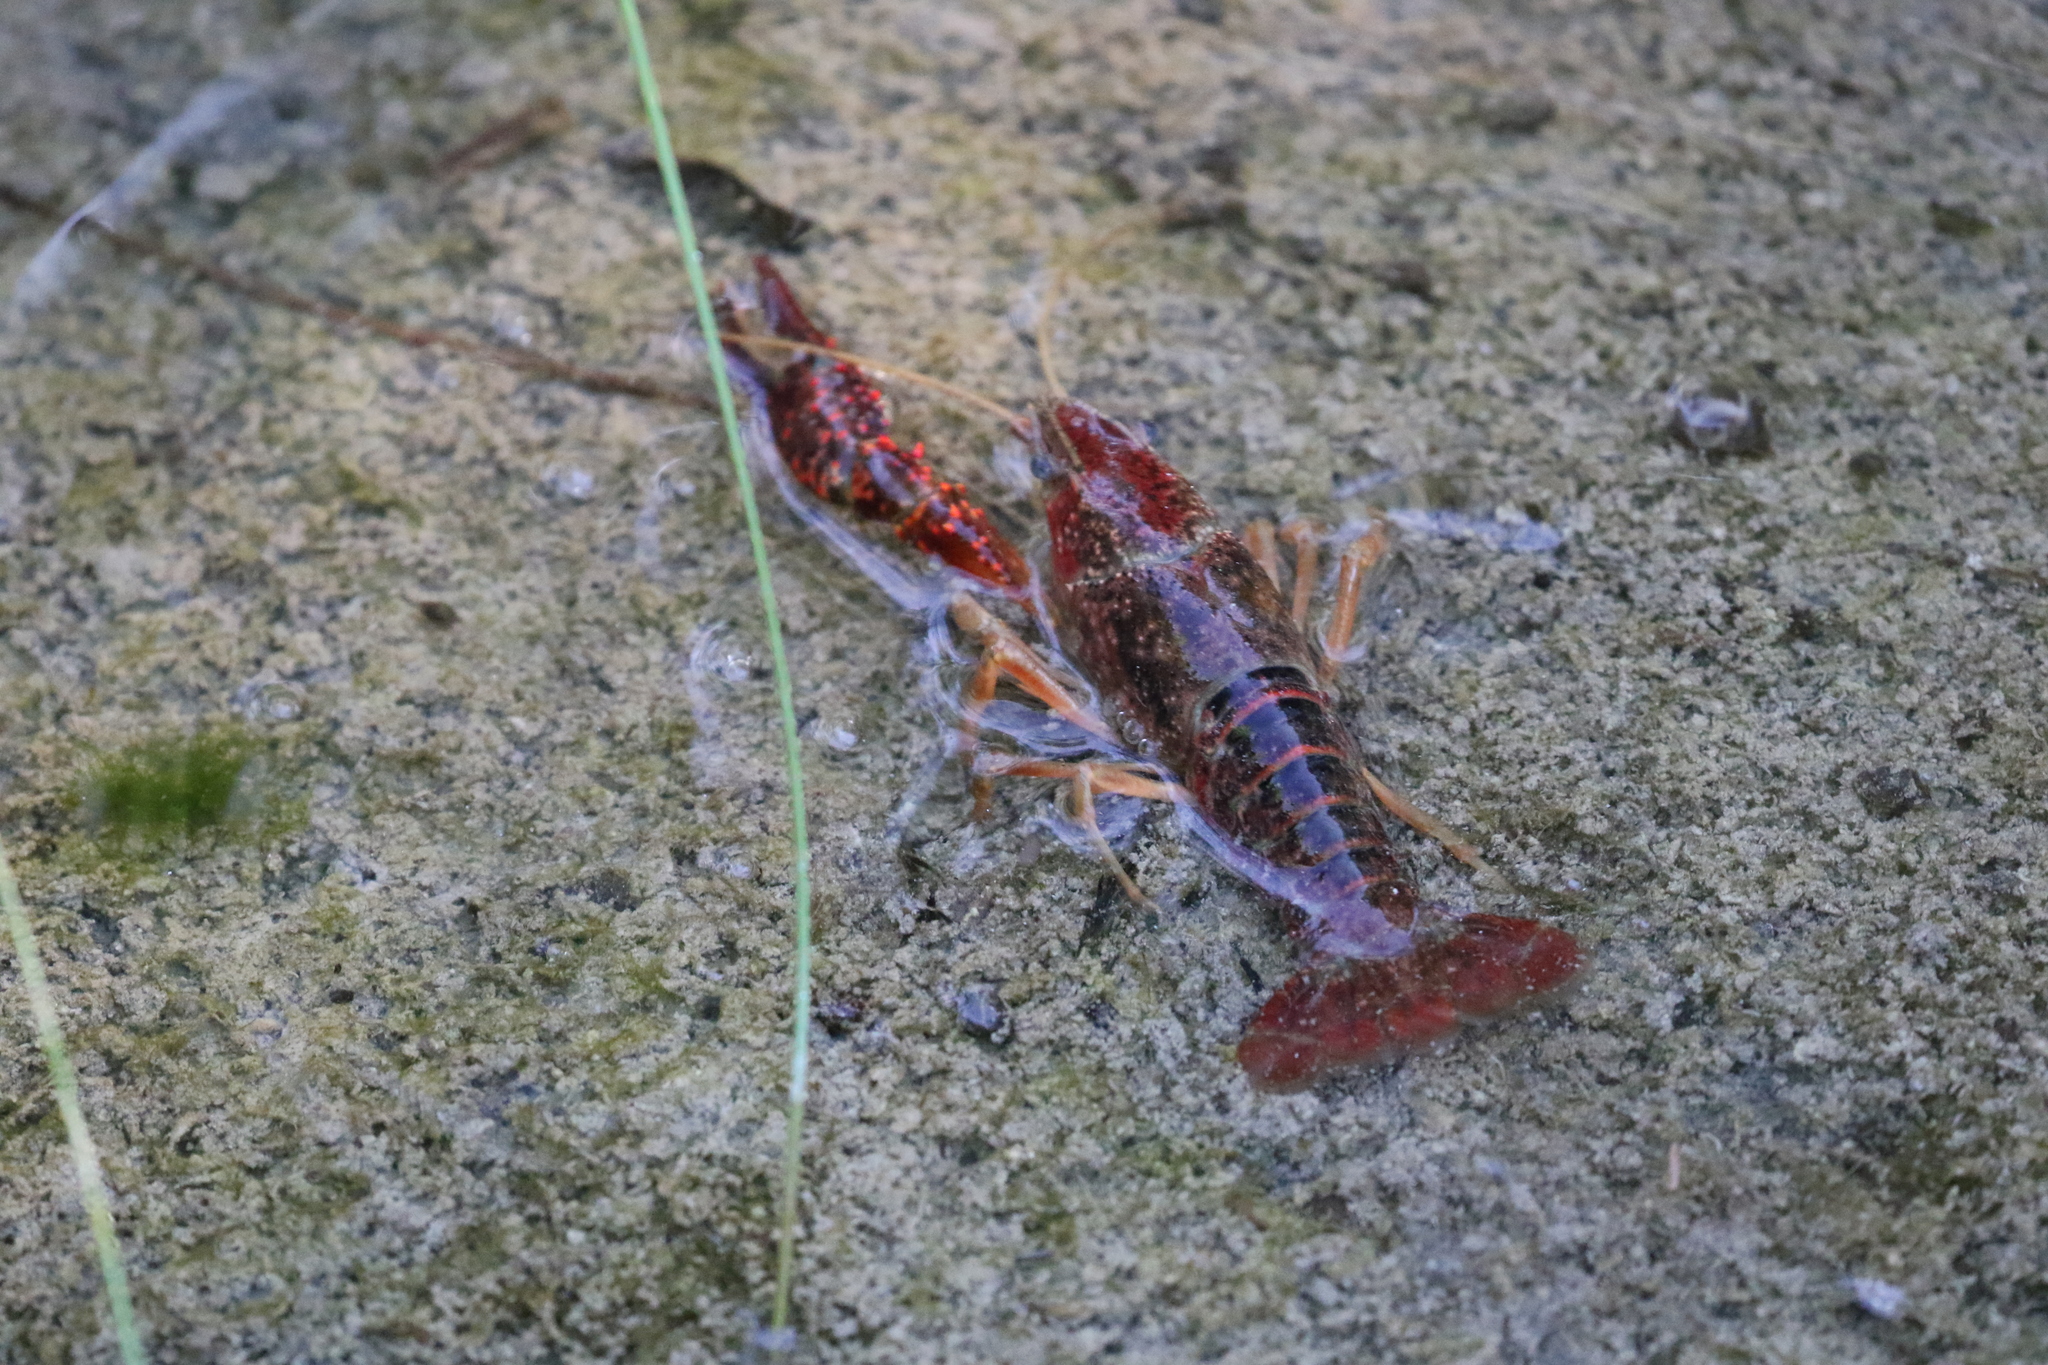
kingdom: Animalia
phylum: Arthropoda
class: Malacostraca
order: Decapoda
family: Cambaridae
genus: Procambarus
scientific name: Procambarus clarkii
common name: Red swamp crayfish
